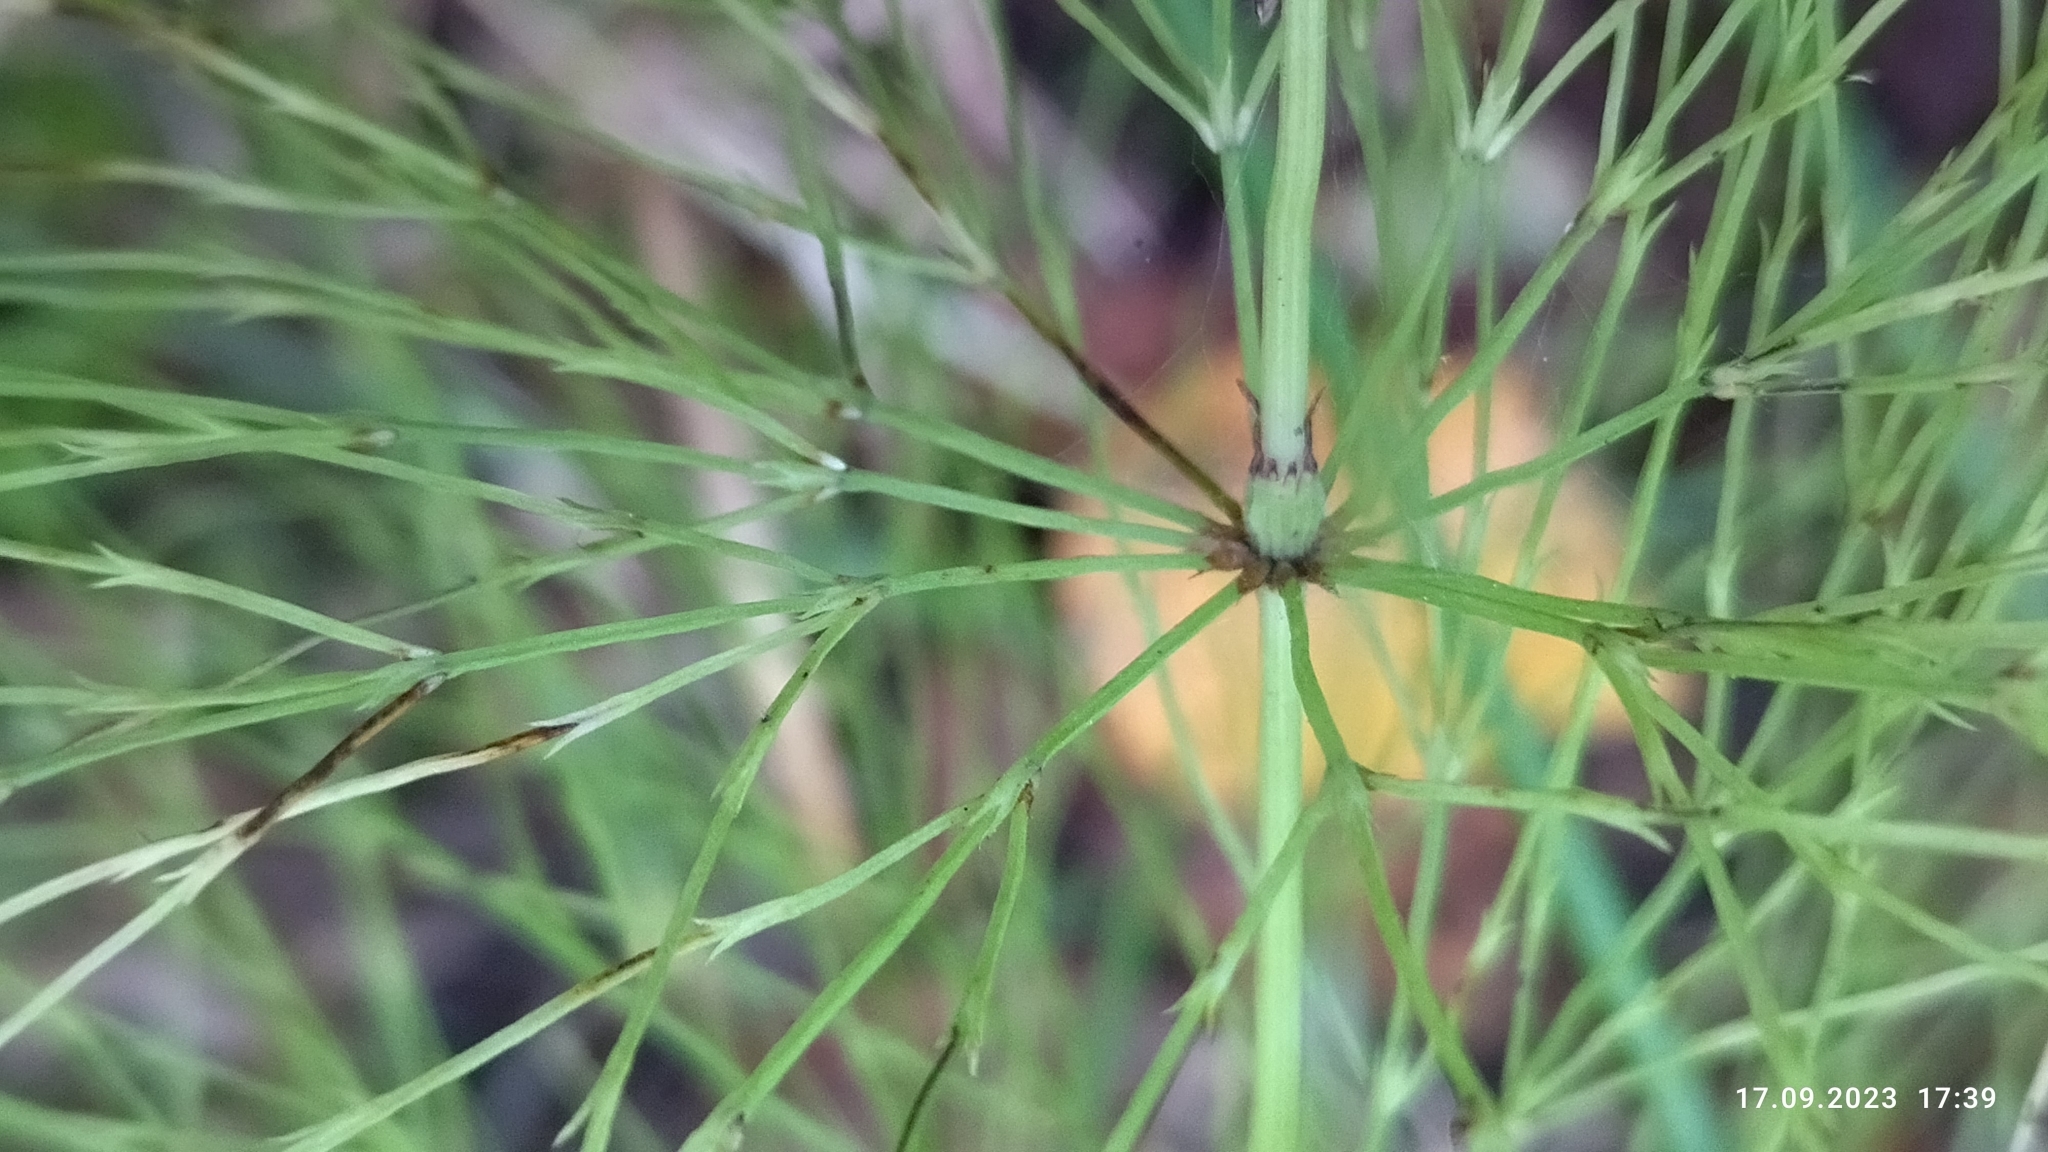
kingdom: Plantae
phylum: Tracheophyta
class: Polypodiopsida
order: Equisetales
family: Equisetaceae
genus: Equisetum
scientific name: Equisetum sylvaticum
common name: Wood horsetail
